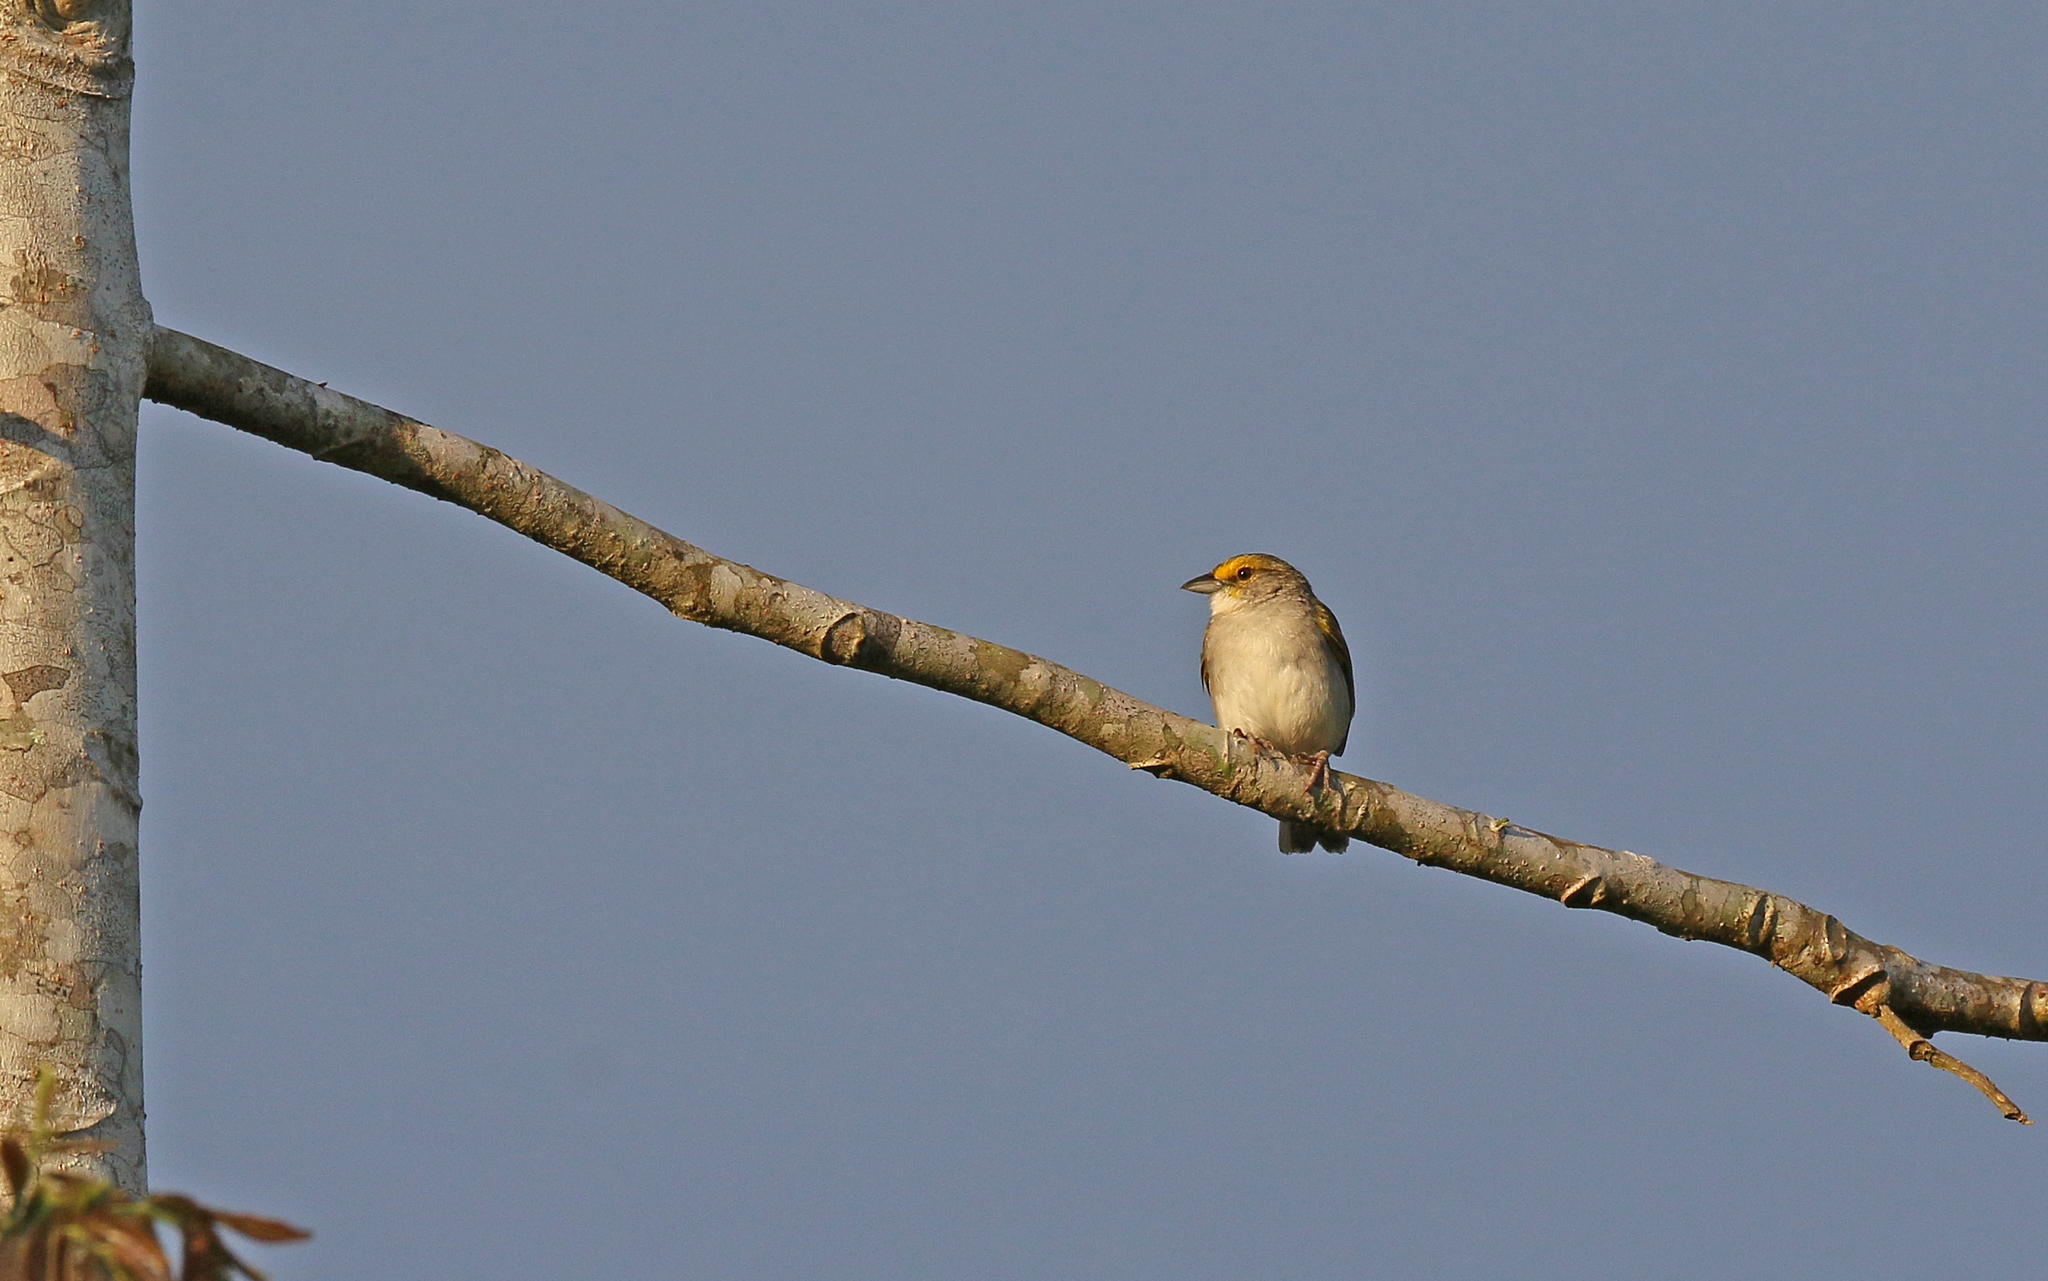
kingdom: Animalia
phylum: Chordata
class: Aves
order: Passeriformes
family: Passerellidae
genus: Ammodramus
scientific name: Ammodramus aurifrons
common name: Yellow-browed sparrow
